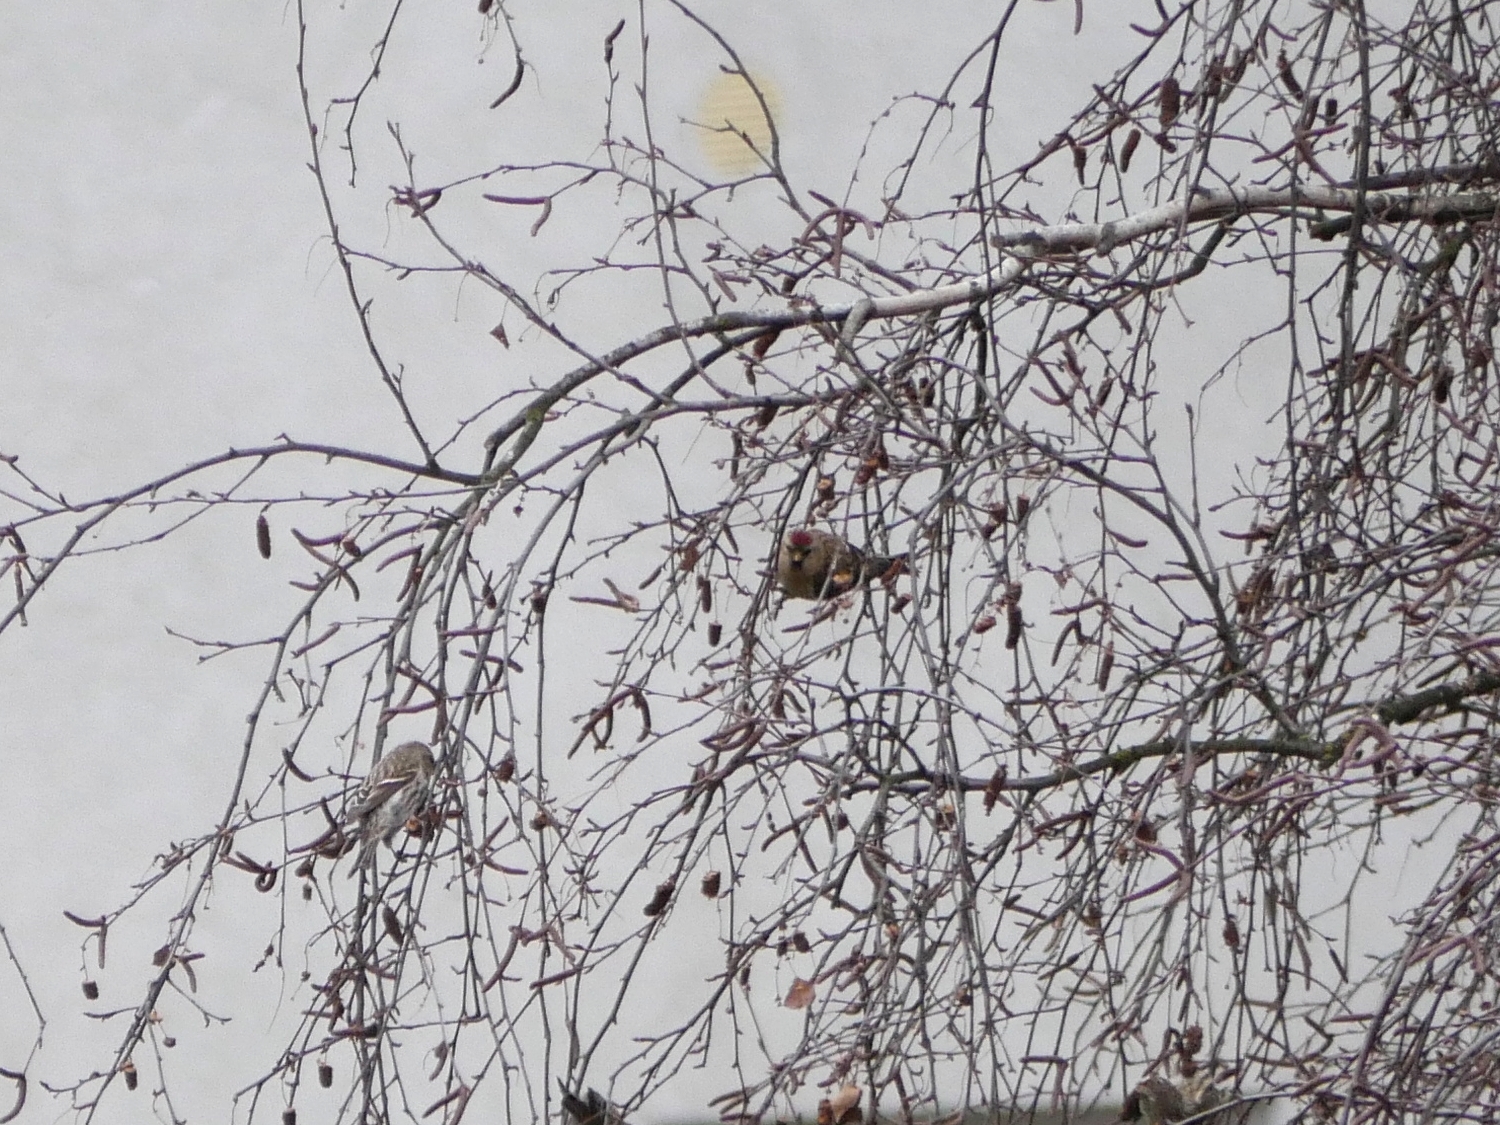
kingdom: Animalia
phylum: Chordata
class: Aves
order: Passeriformes
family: Fringillidae
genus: Acanthis
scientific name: Acanthis flammea
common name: Common redpoll
